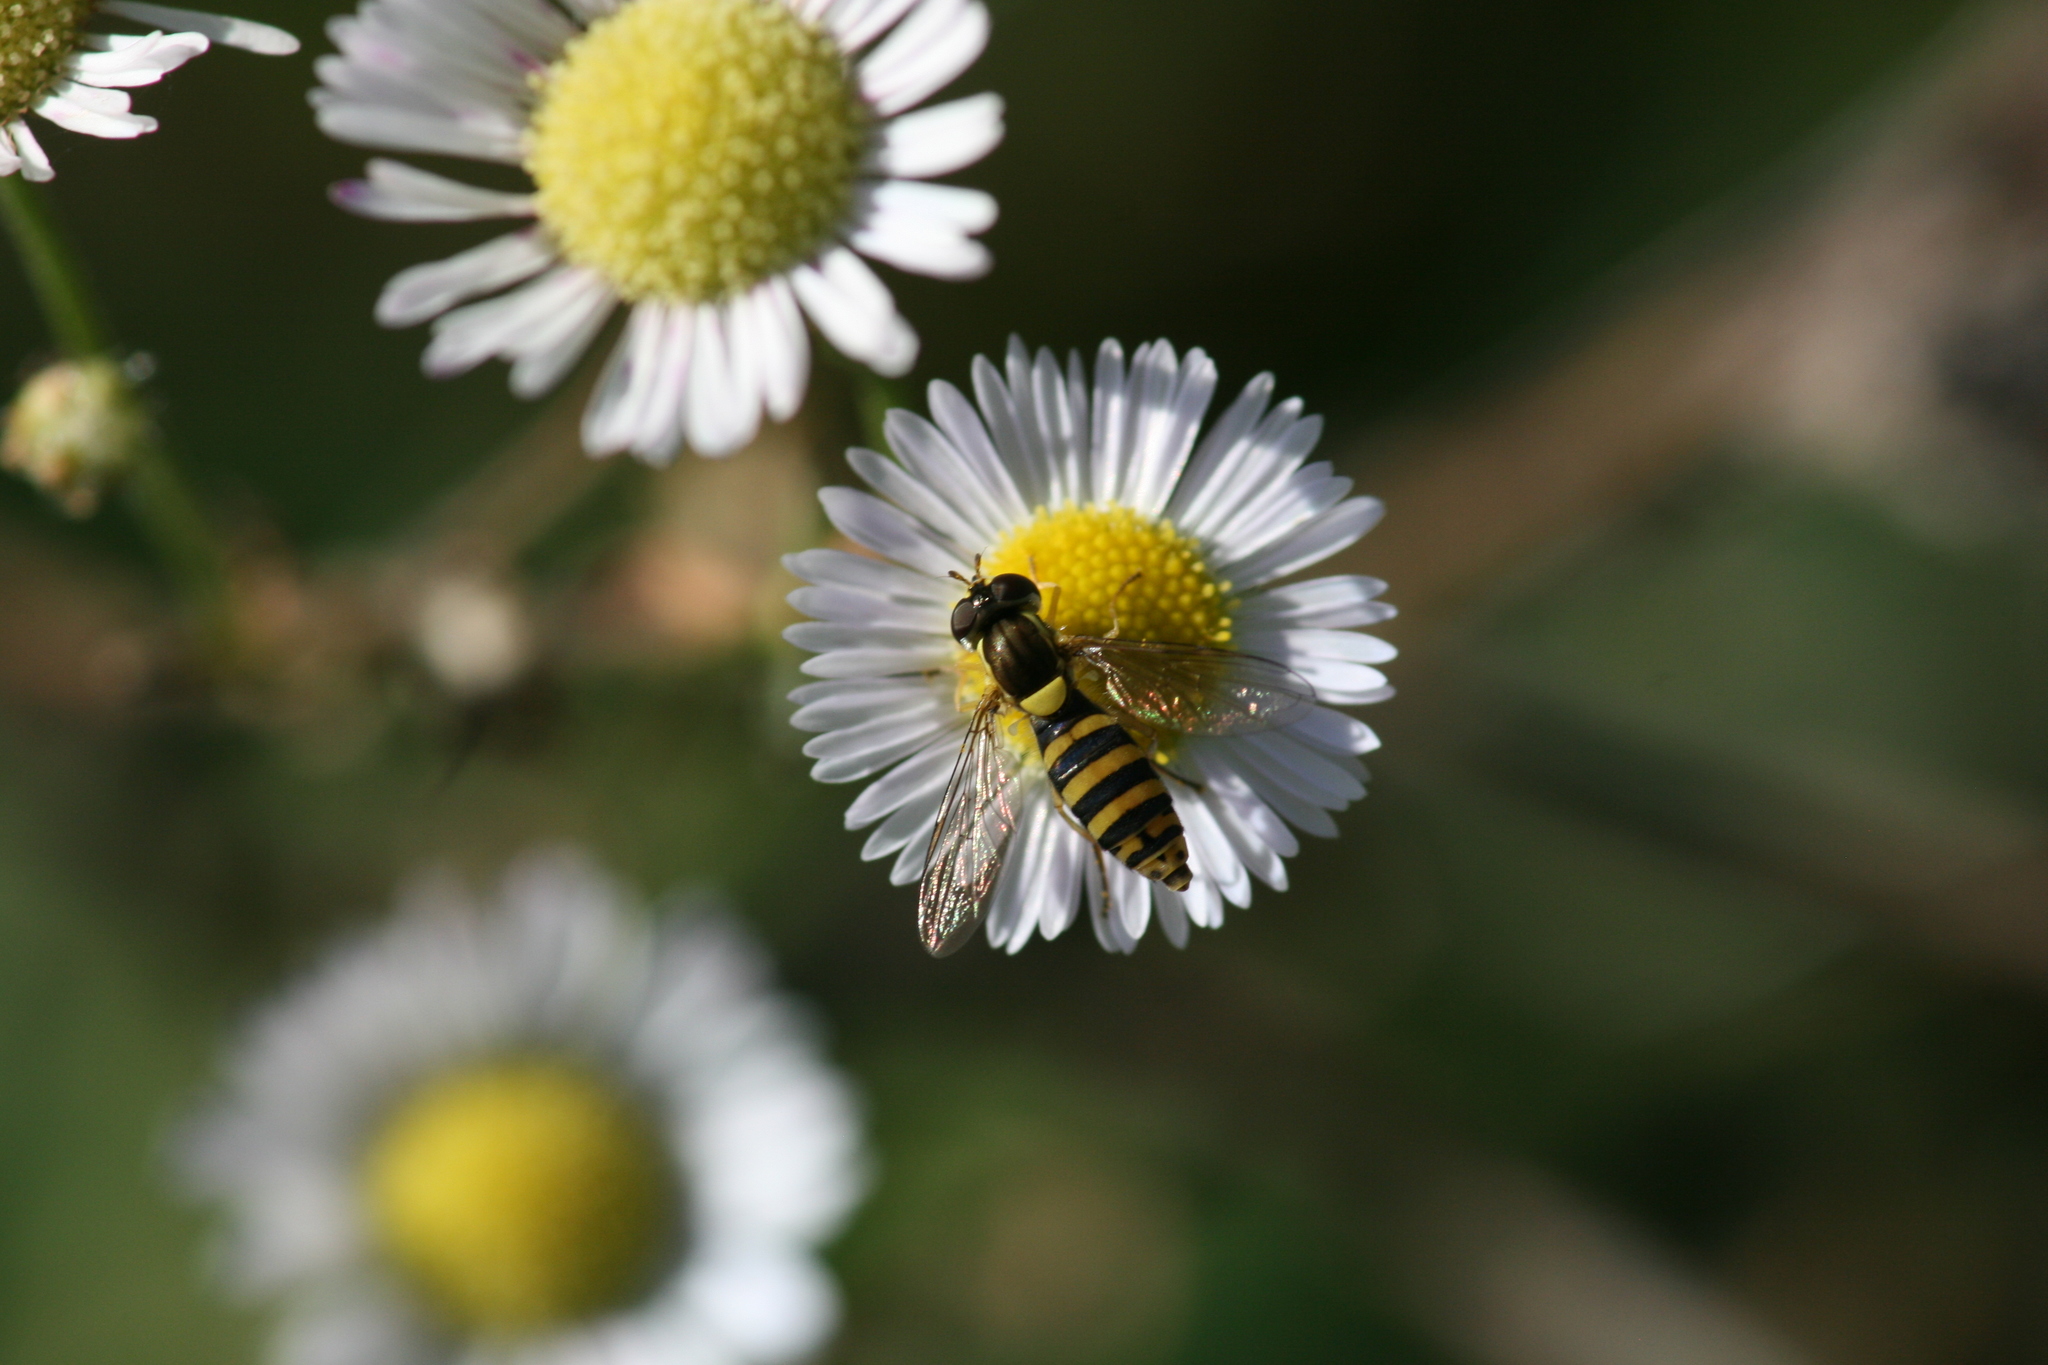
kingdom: Animalia
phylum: Arthropoda
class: Insecta
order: Diptera
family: Syrphidae
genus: Sphaerophoria
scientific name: Sphaerophoria
